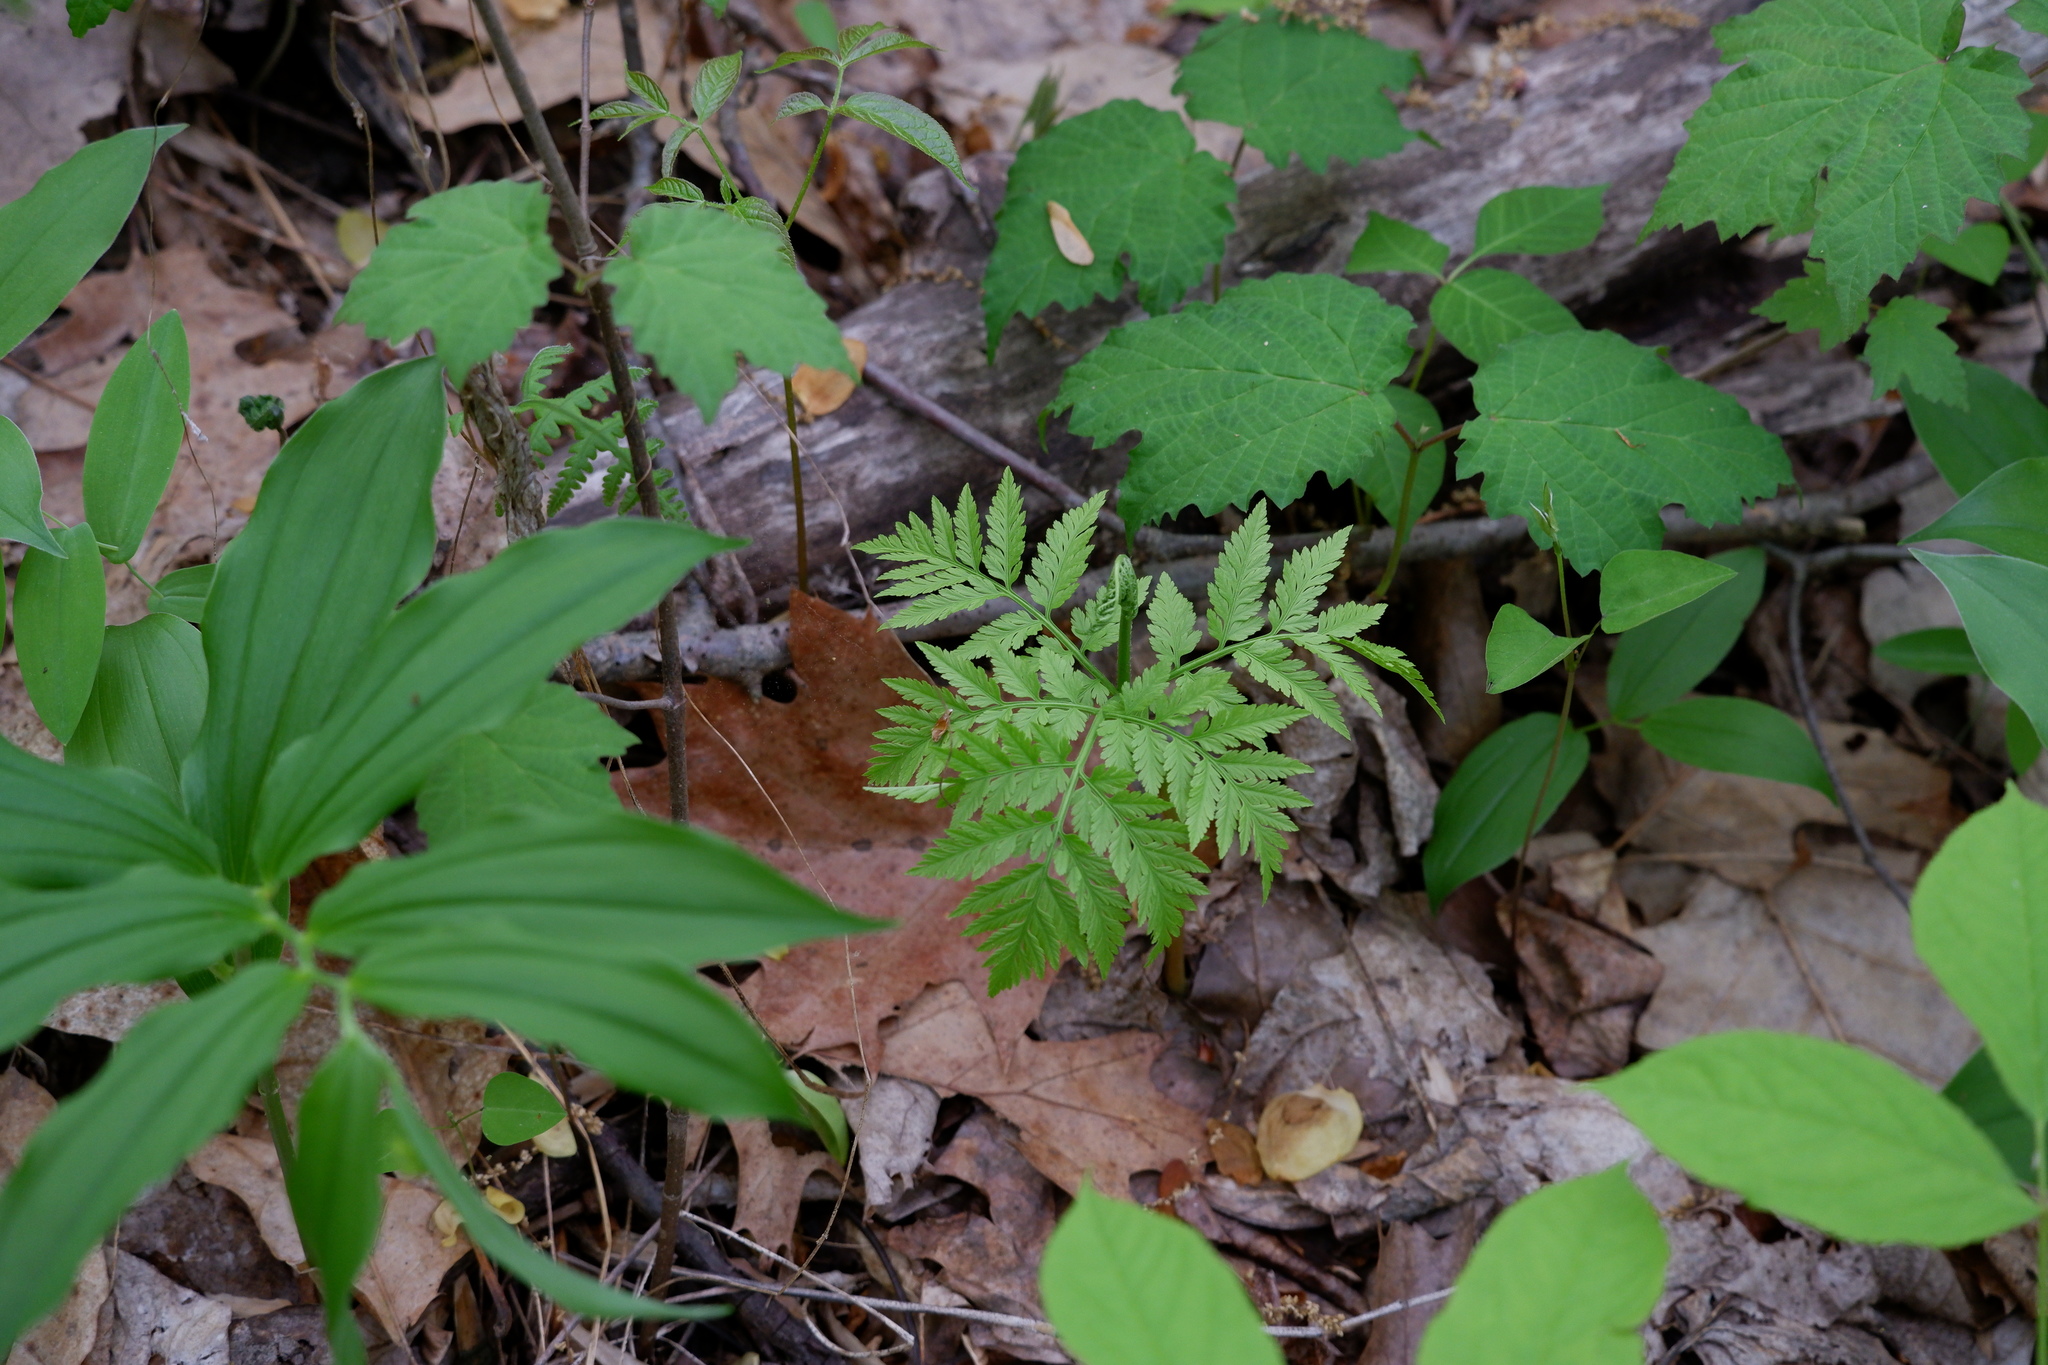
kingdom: Plantae
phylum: Tracheophyta
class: Polypodiopsida
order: Ophioglossales
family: Ophioglossaceae
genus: Botrypus
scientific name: Botrypus virginianus
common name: Common grapefern
